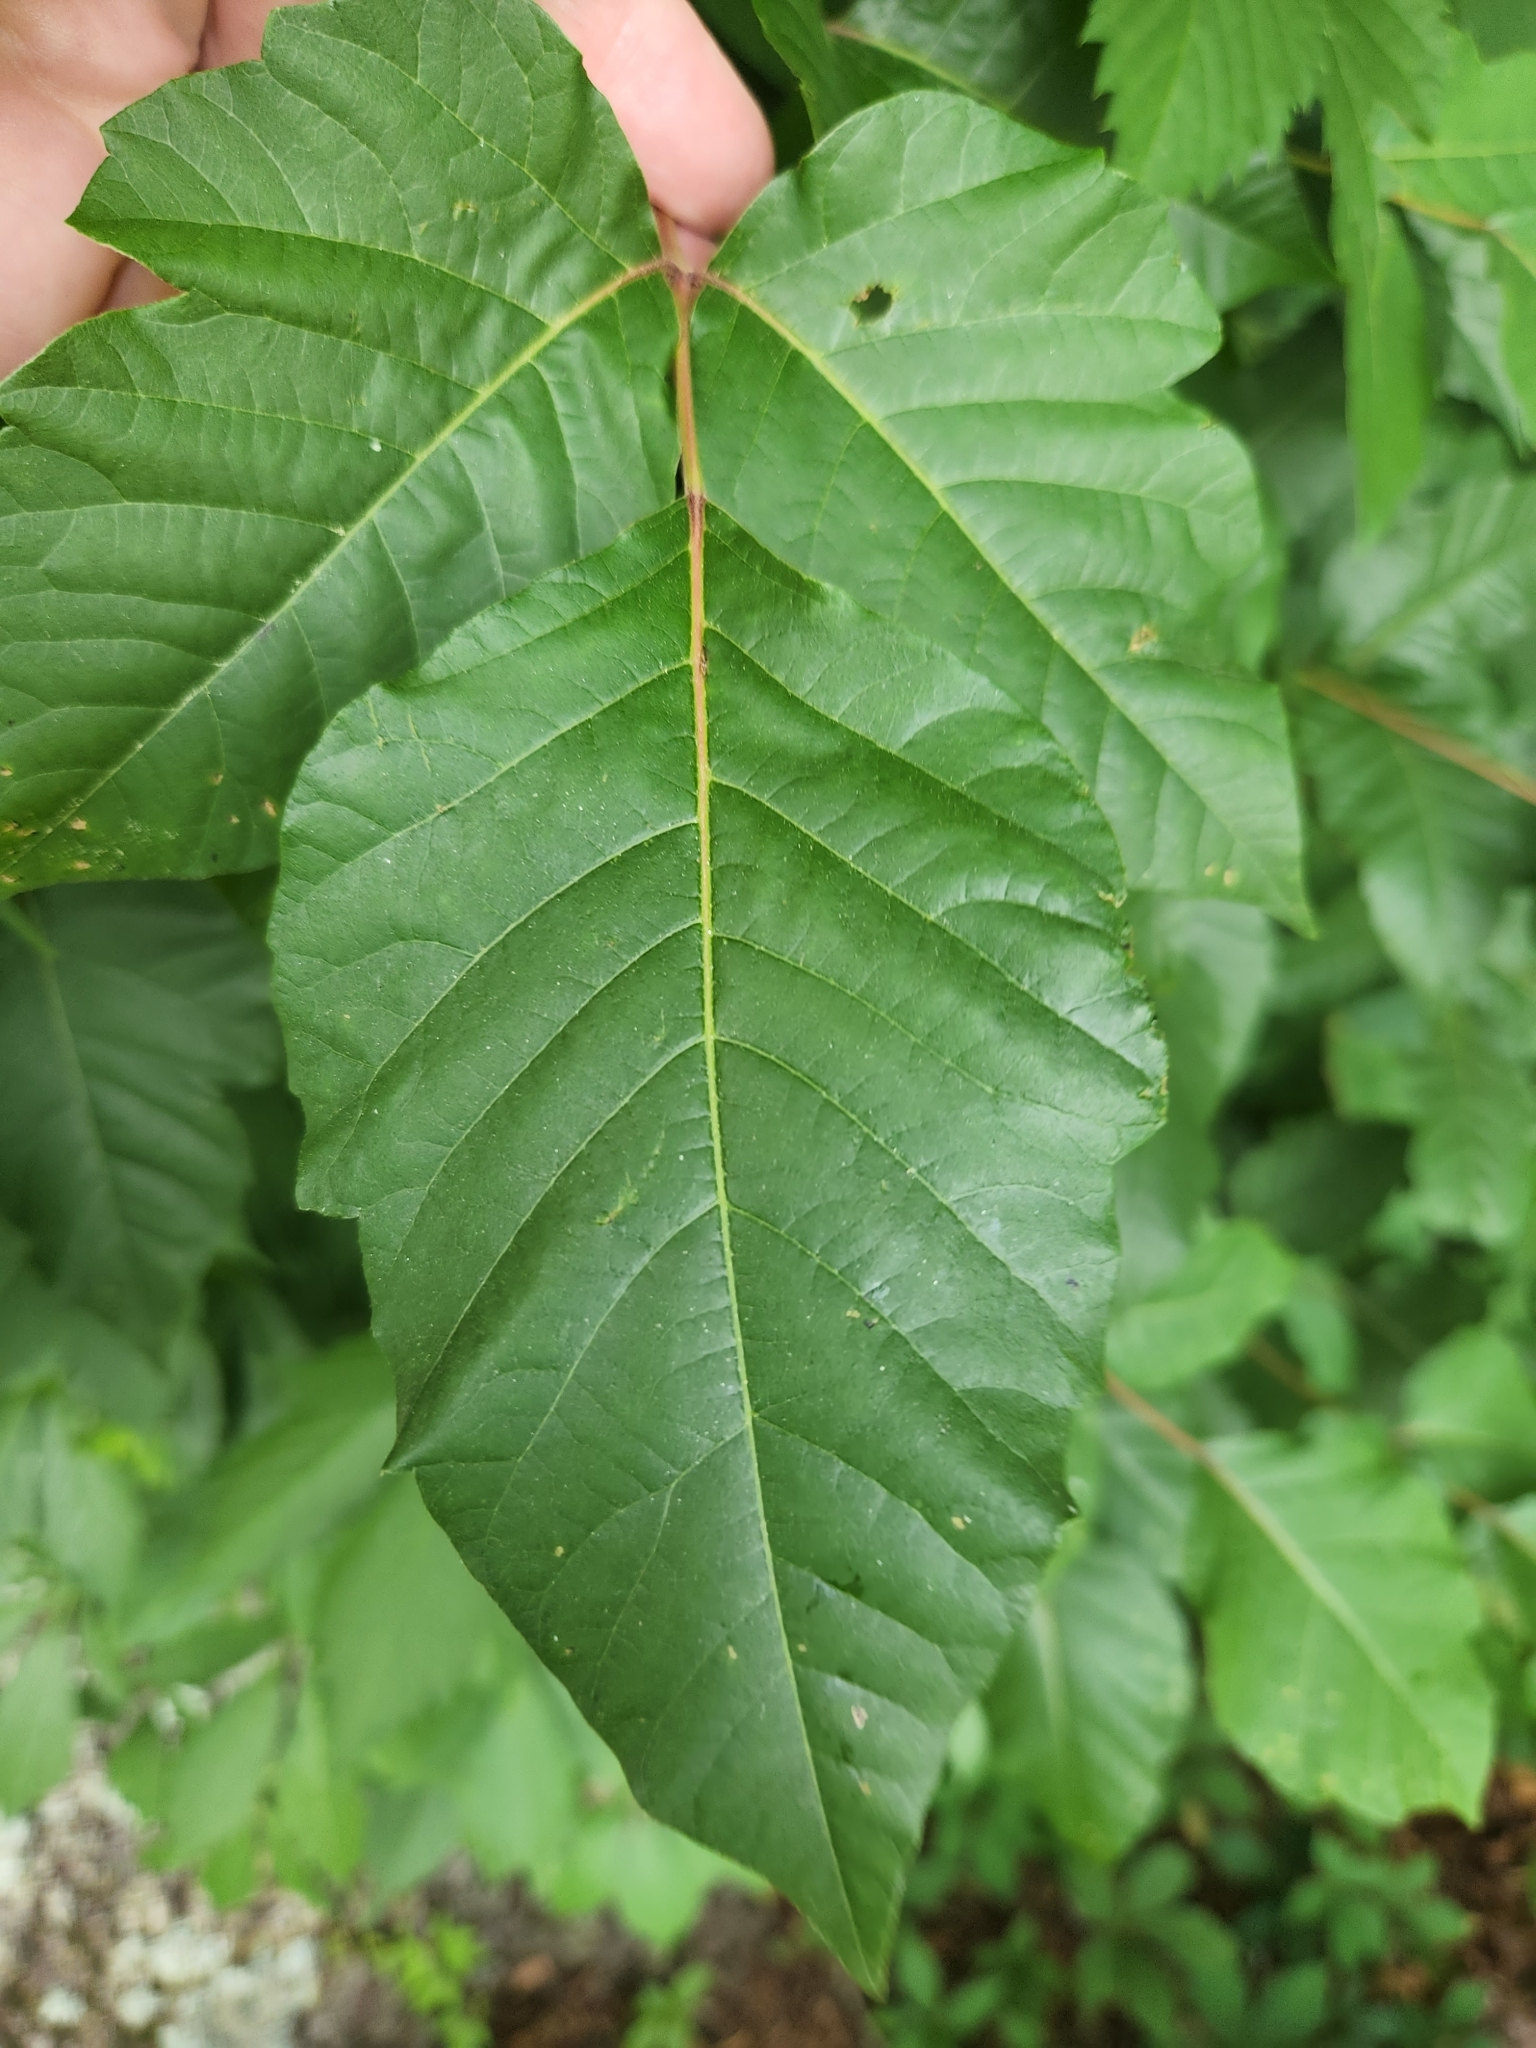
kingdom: Plantae
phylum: Tracheophyta
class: Magnoliopsida
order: Sapindales
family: Anacardiaceae
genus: Toxicodendron
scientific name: Toxicodendron radicans
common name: Poison ivy
